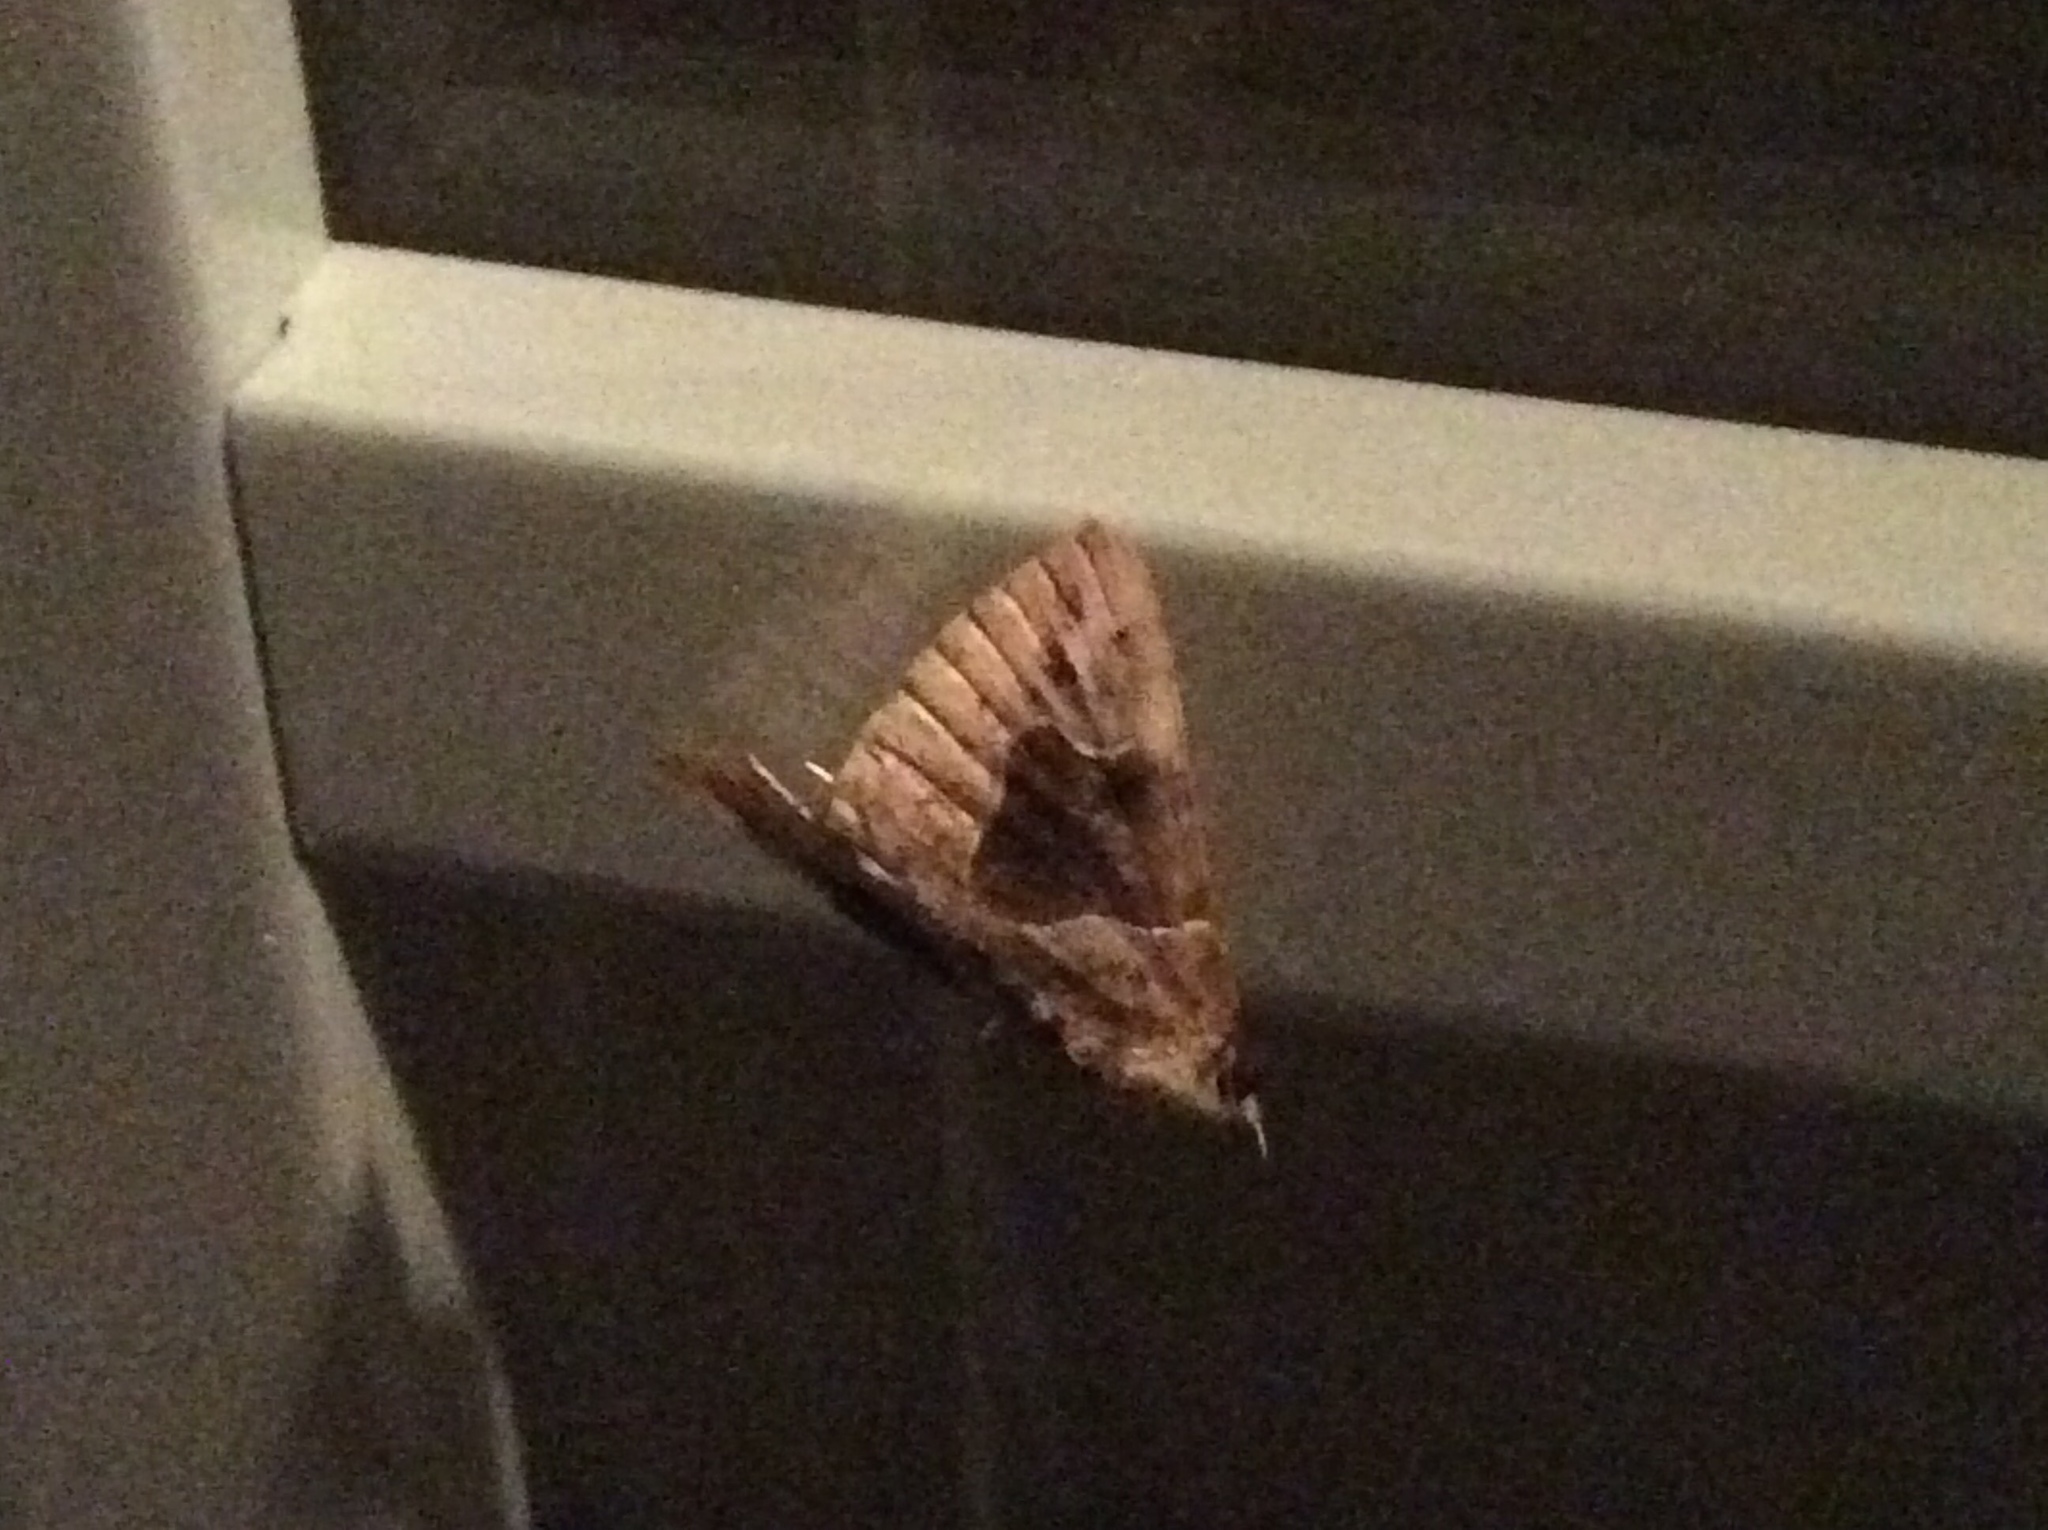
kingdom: Animalia
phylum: Arthropoda
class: Insecta
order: Lepidoptera
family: Erebidae
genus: Hypena
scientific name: Hypena manalis
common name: Flowing-line bomolocha moth
